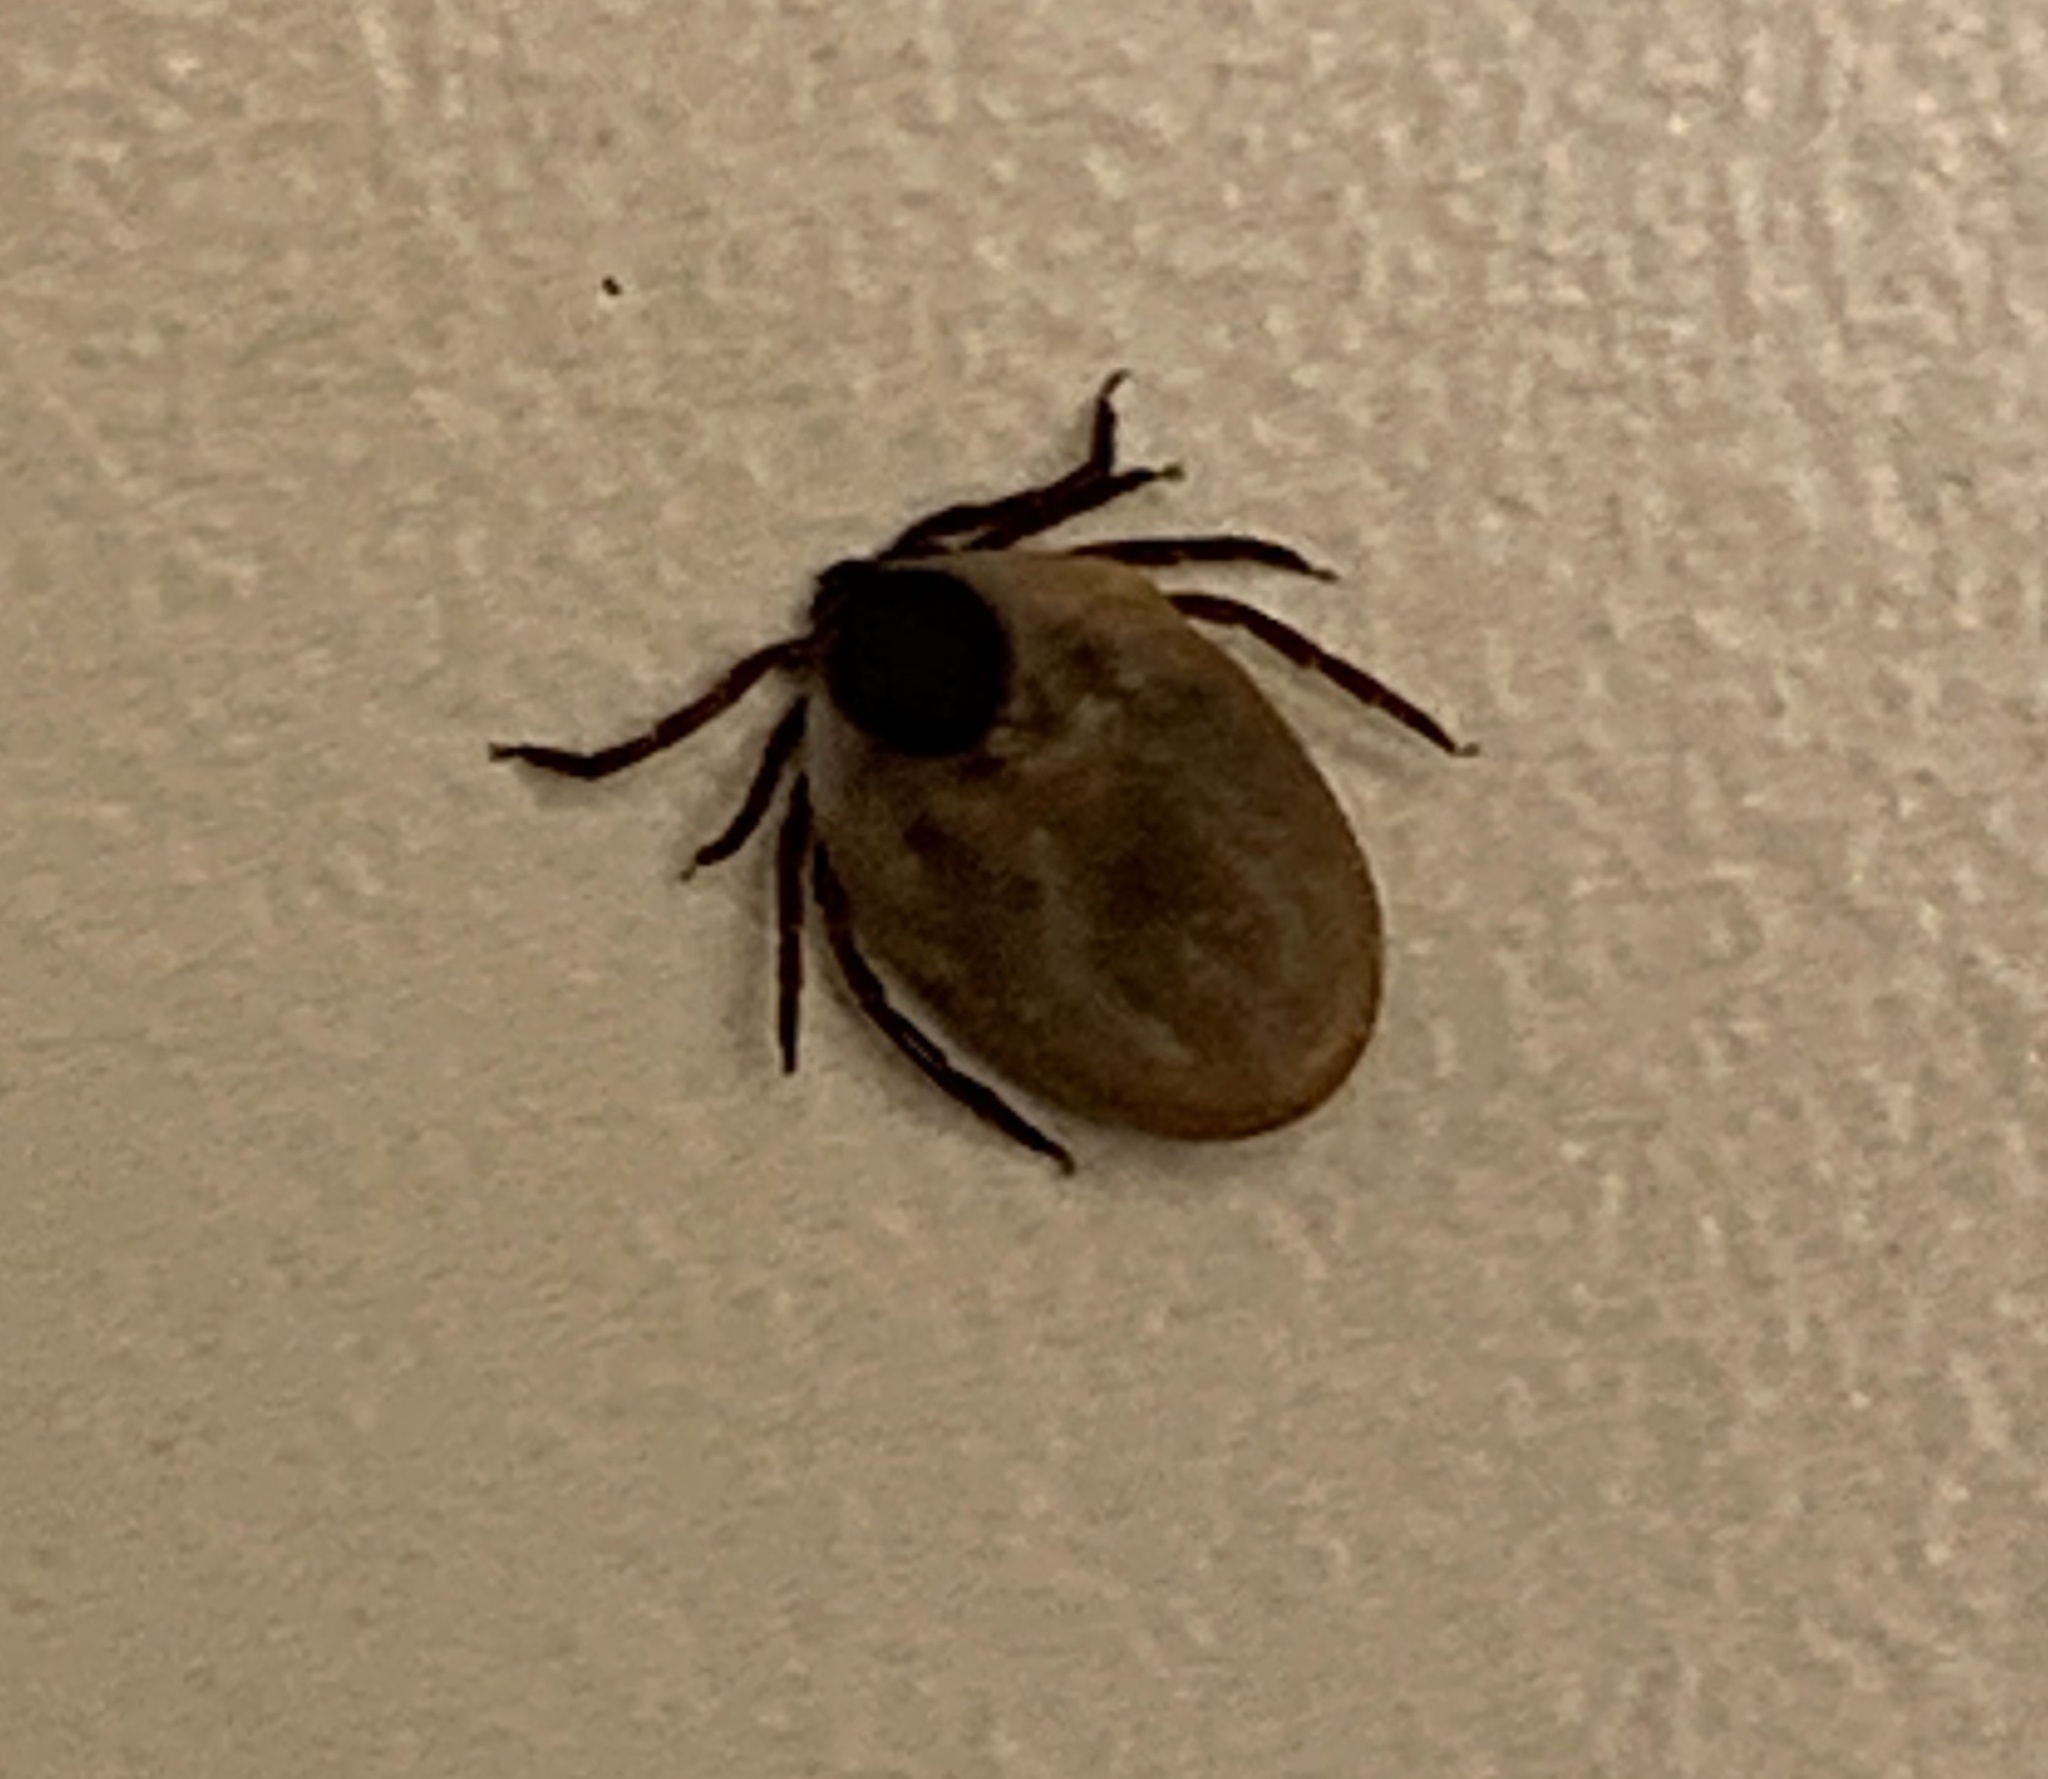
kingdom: Animalia
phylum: Arthropoda
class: Arachnida
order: Ixodida
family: Ixodidae
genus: Ixodes
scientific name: Ixodes scapularis
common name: Black legged tick
